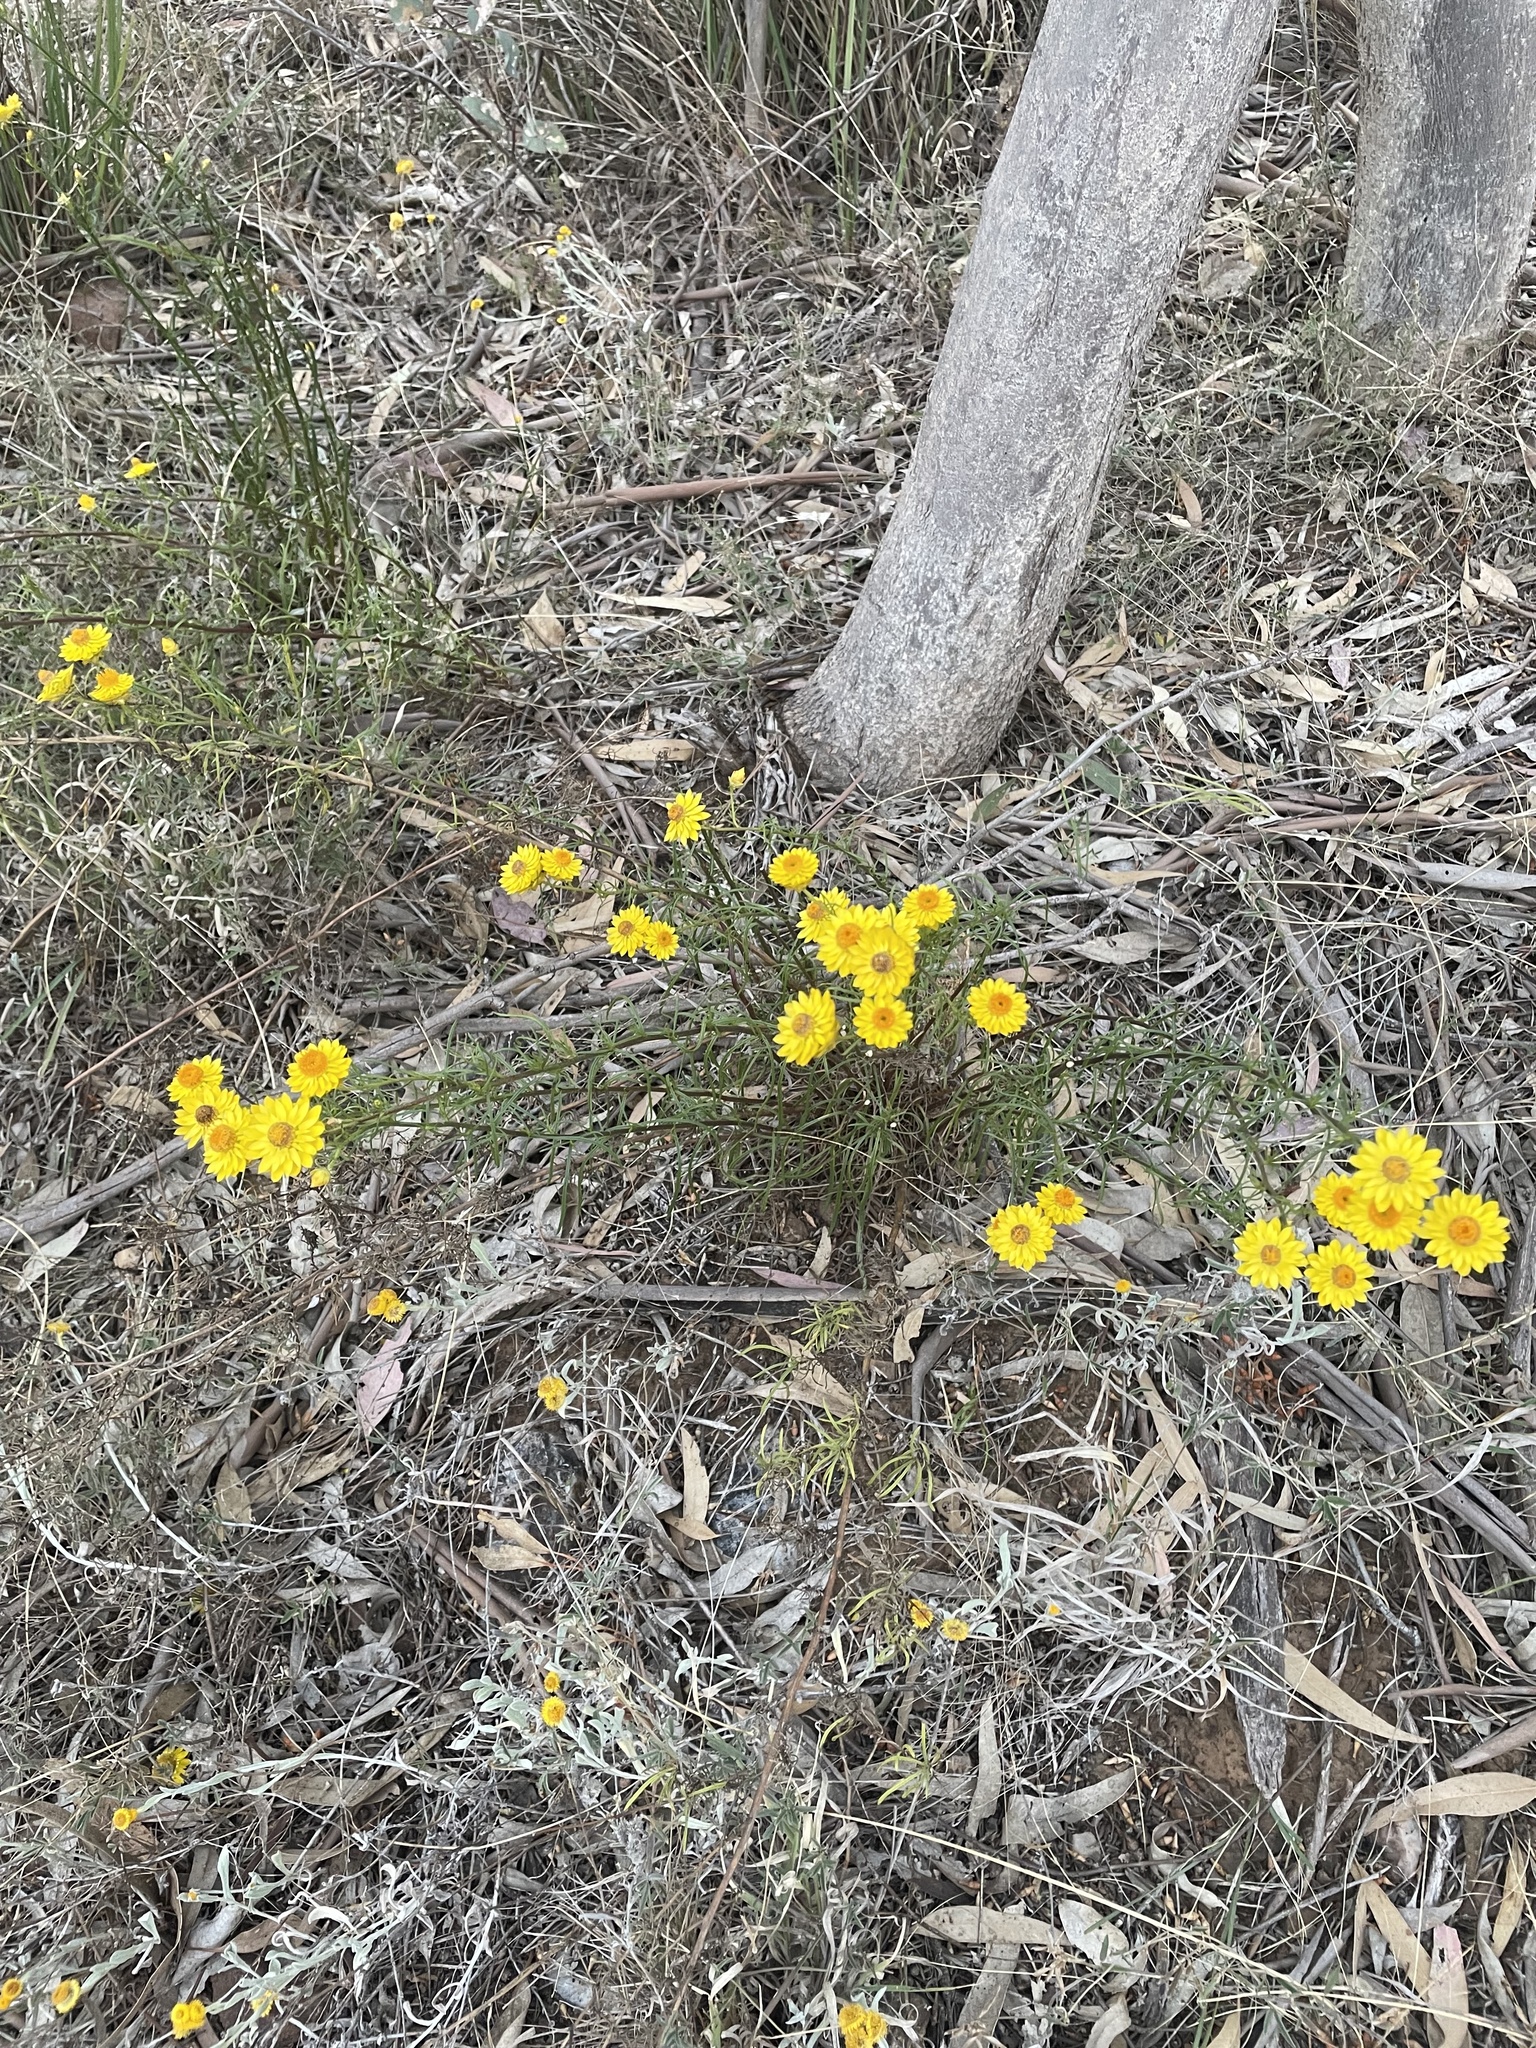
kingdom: Plantae
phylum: Tracheophyta
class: Magnoliopsida
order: Asterales
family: Asteraceae
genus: Xerochrysum
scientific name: Xerochrysum viscosum
